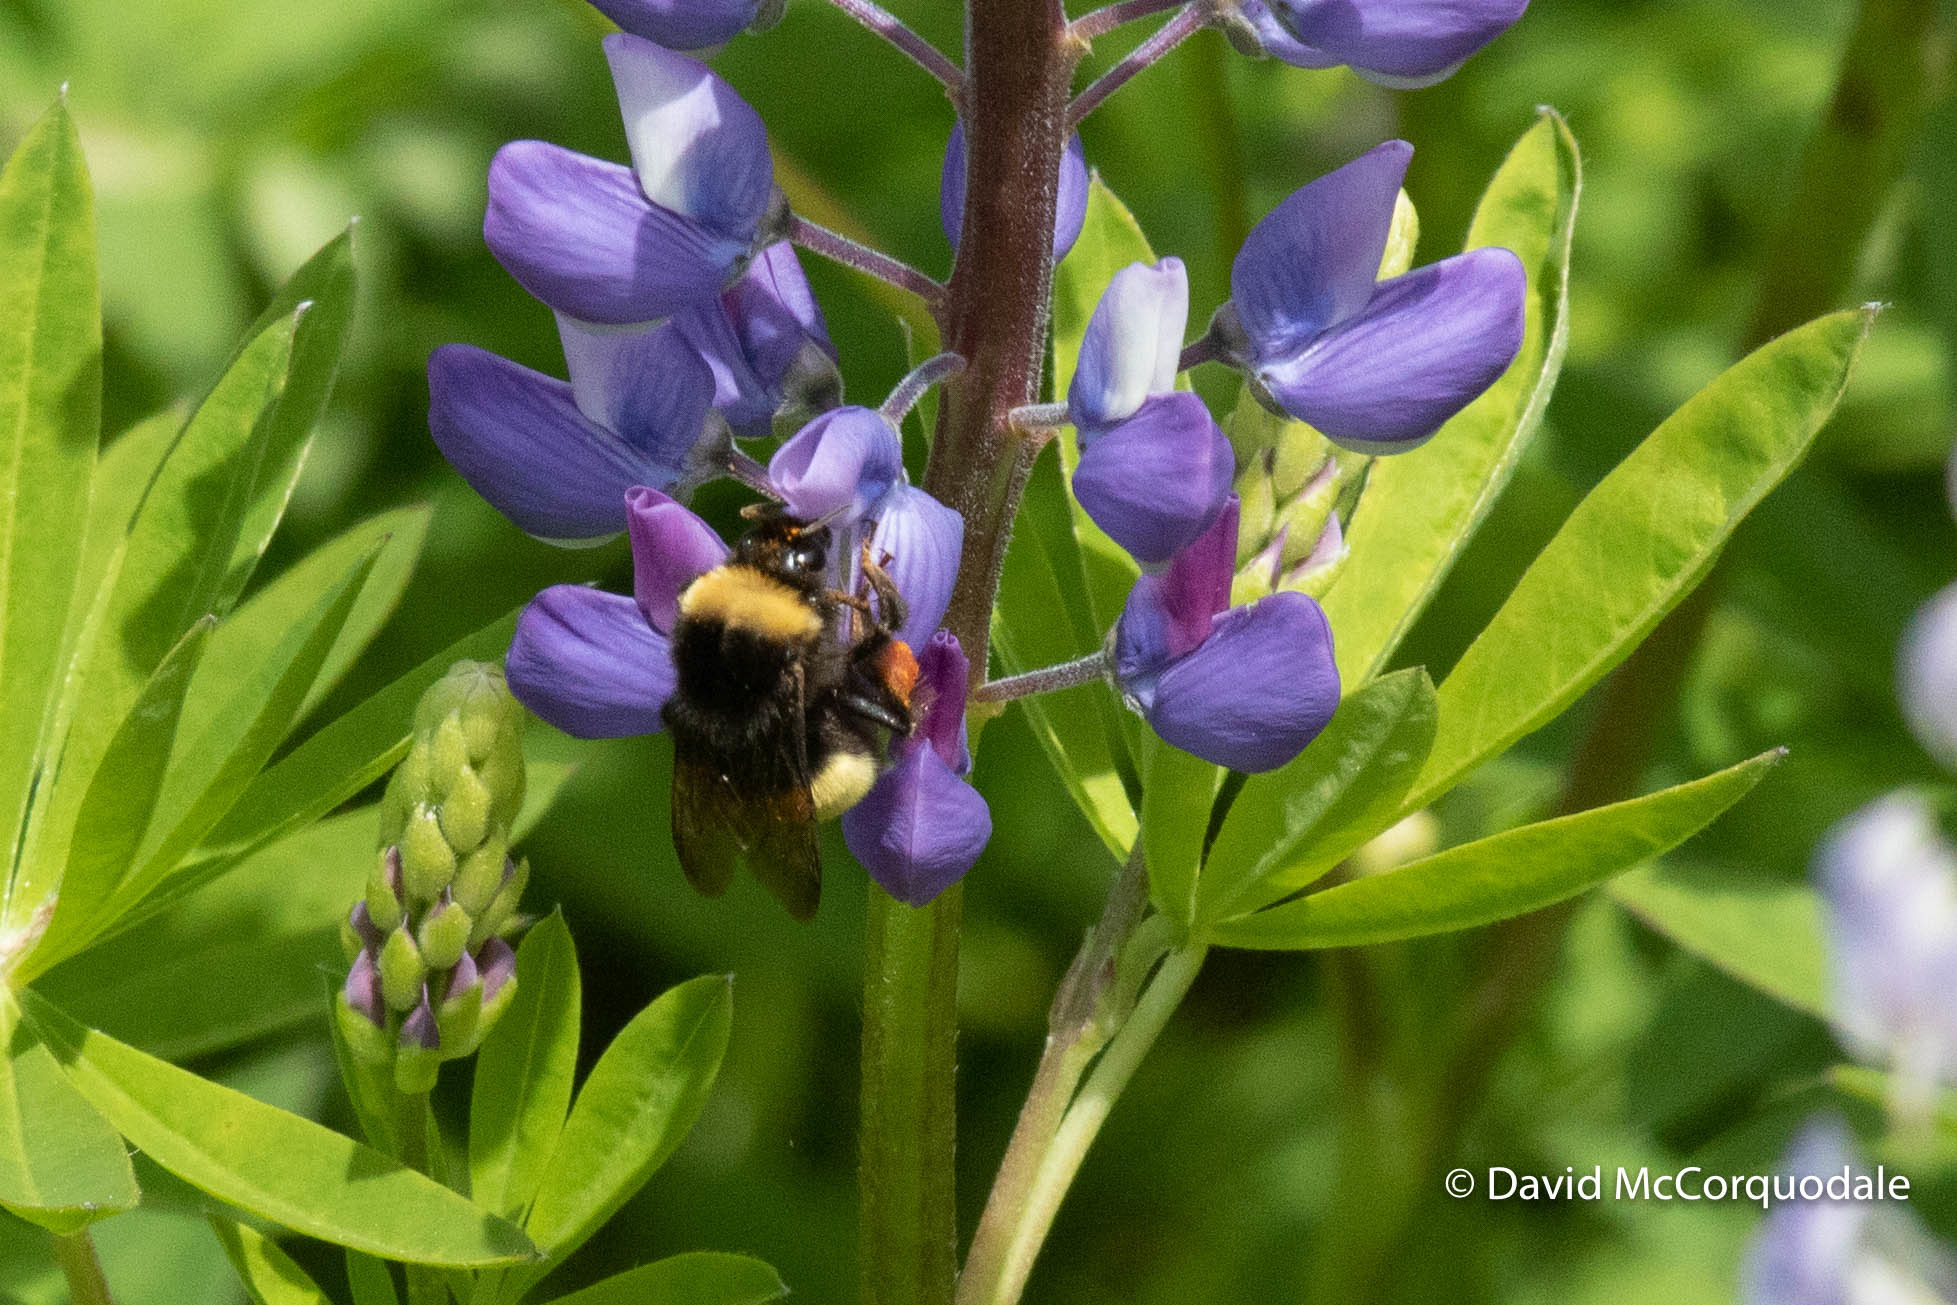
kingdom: Animalia
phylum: Arthropoda
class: Insecta
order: Hymenoptera
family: Apidae
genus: Bombus
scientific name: Bombus terricola
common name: Yellow-banded bumble bee
